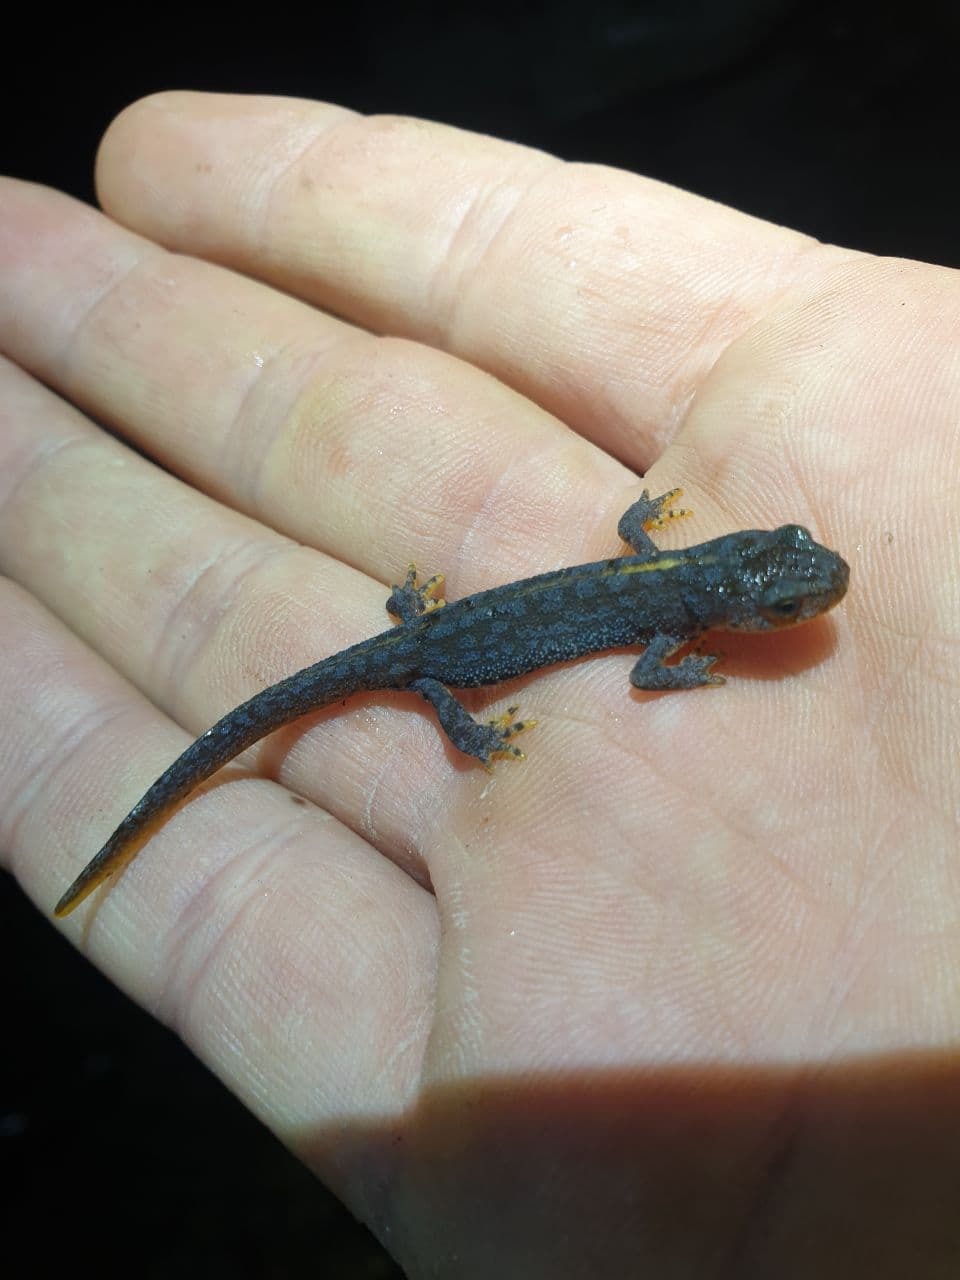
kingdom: Animalia
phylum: Chordata
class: Amphibia
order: Caudata
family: Salamandridae
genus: Ichthyosaura
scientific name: Ichthyosaura alpestris
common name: Alpine newt
